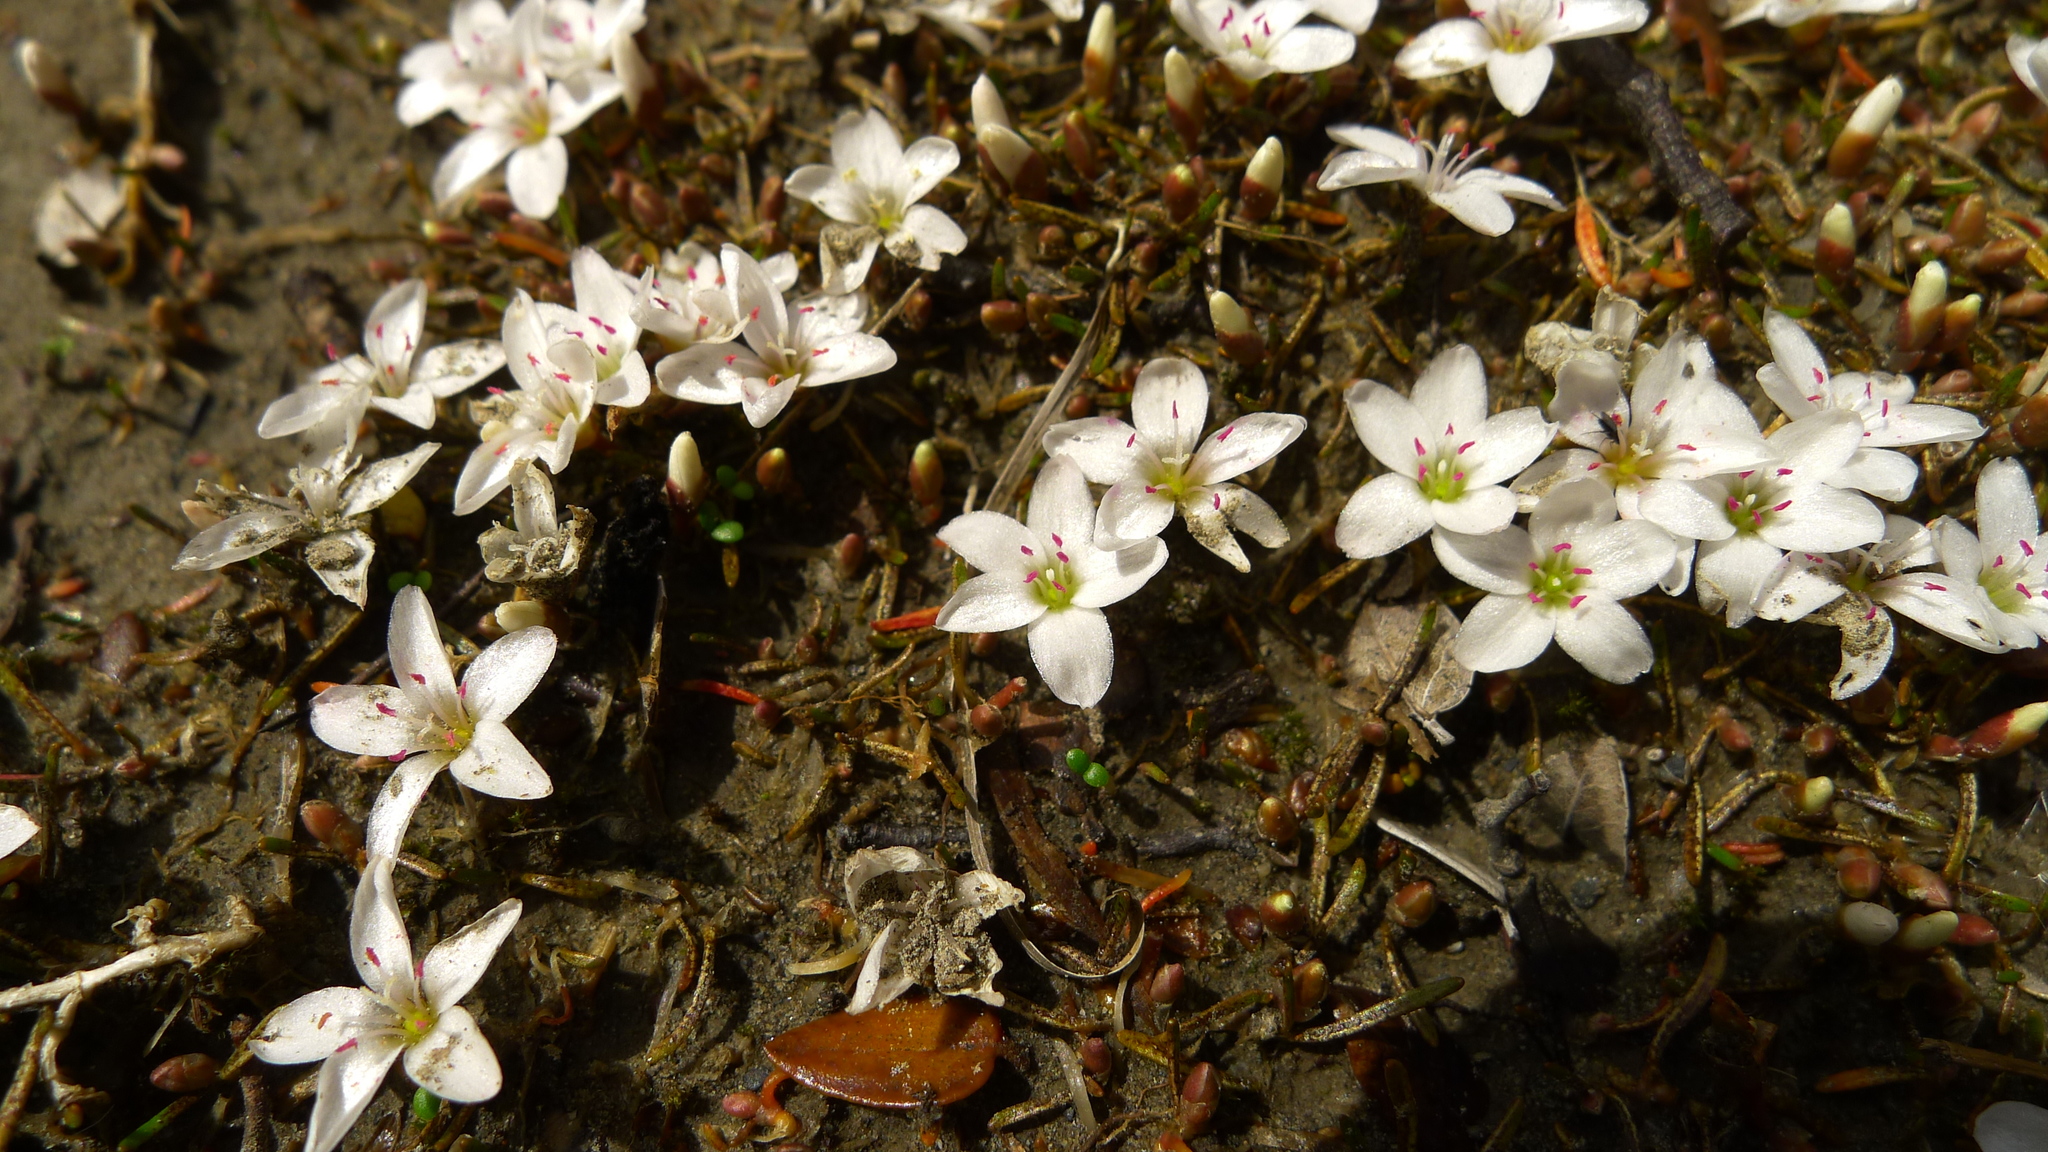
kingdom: Plantae
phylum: Tracheophyta
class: Magnoliopsida
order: Caryophyllales
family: Montiaceae
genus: Montia
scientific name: Montia campylostigma
